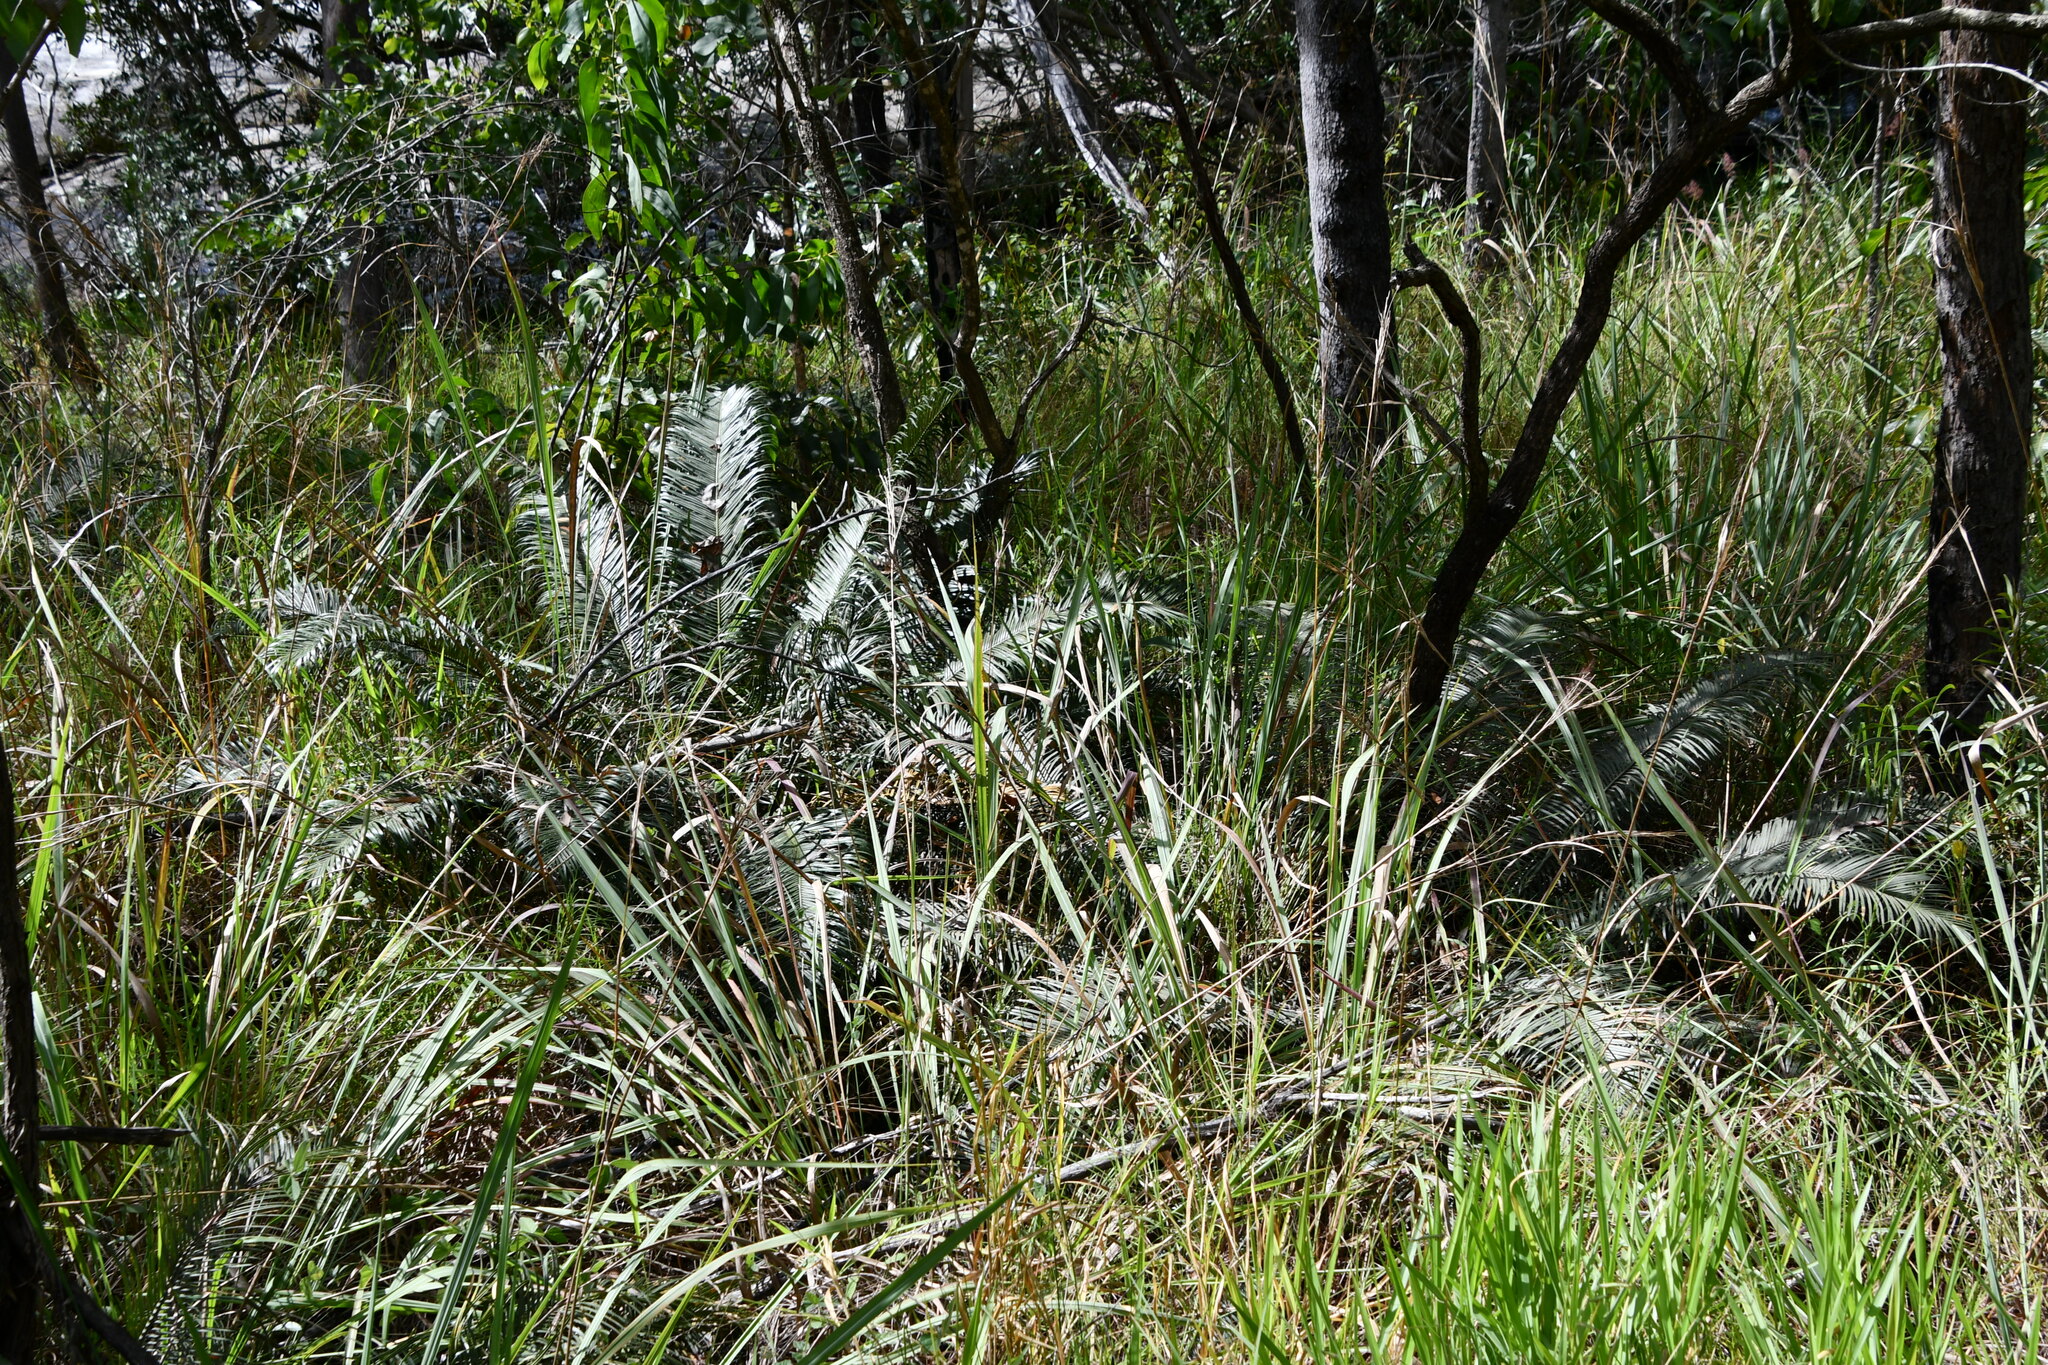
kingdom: Plantae
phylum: Tracheophyta
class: Cycadopsida
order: Cycadales
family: Cycadaceae
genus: Cycas
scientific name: Cycas media
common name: Queensland cycas
